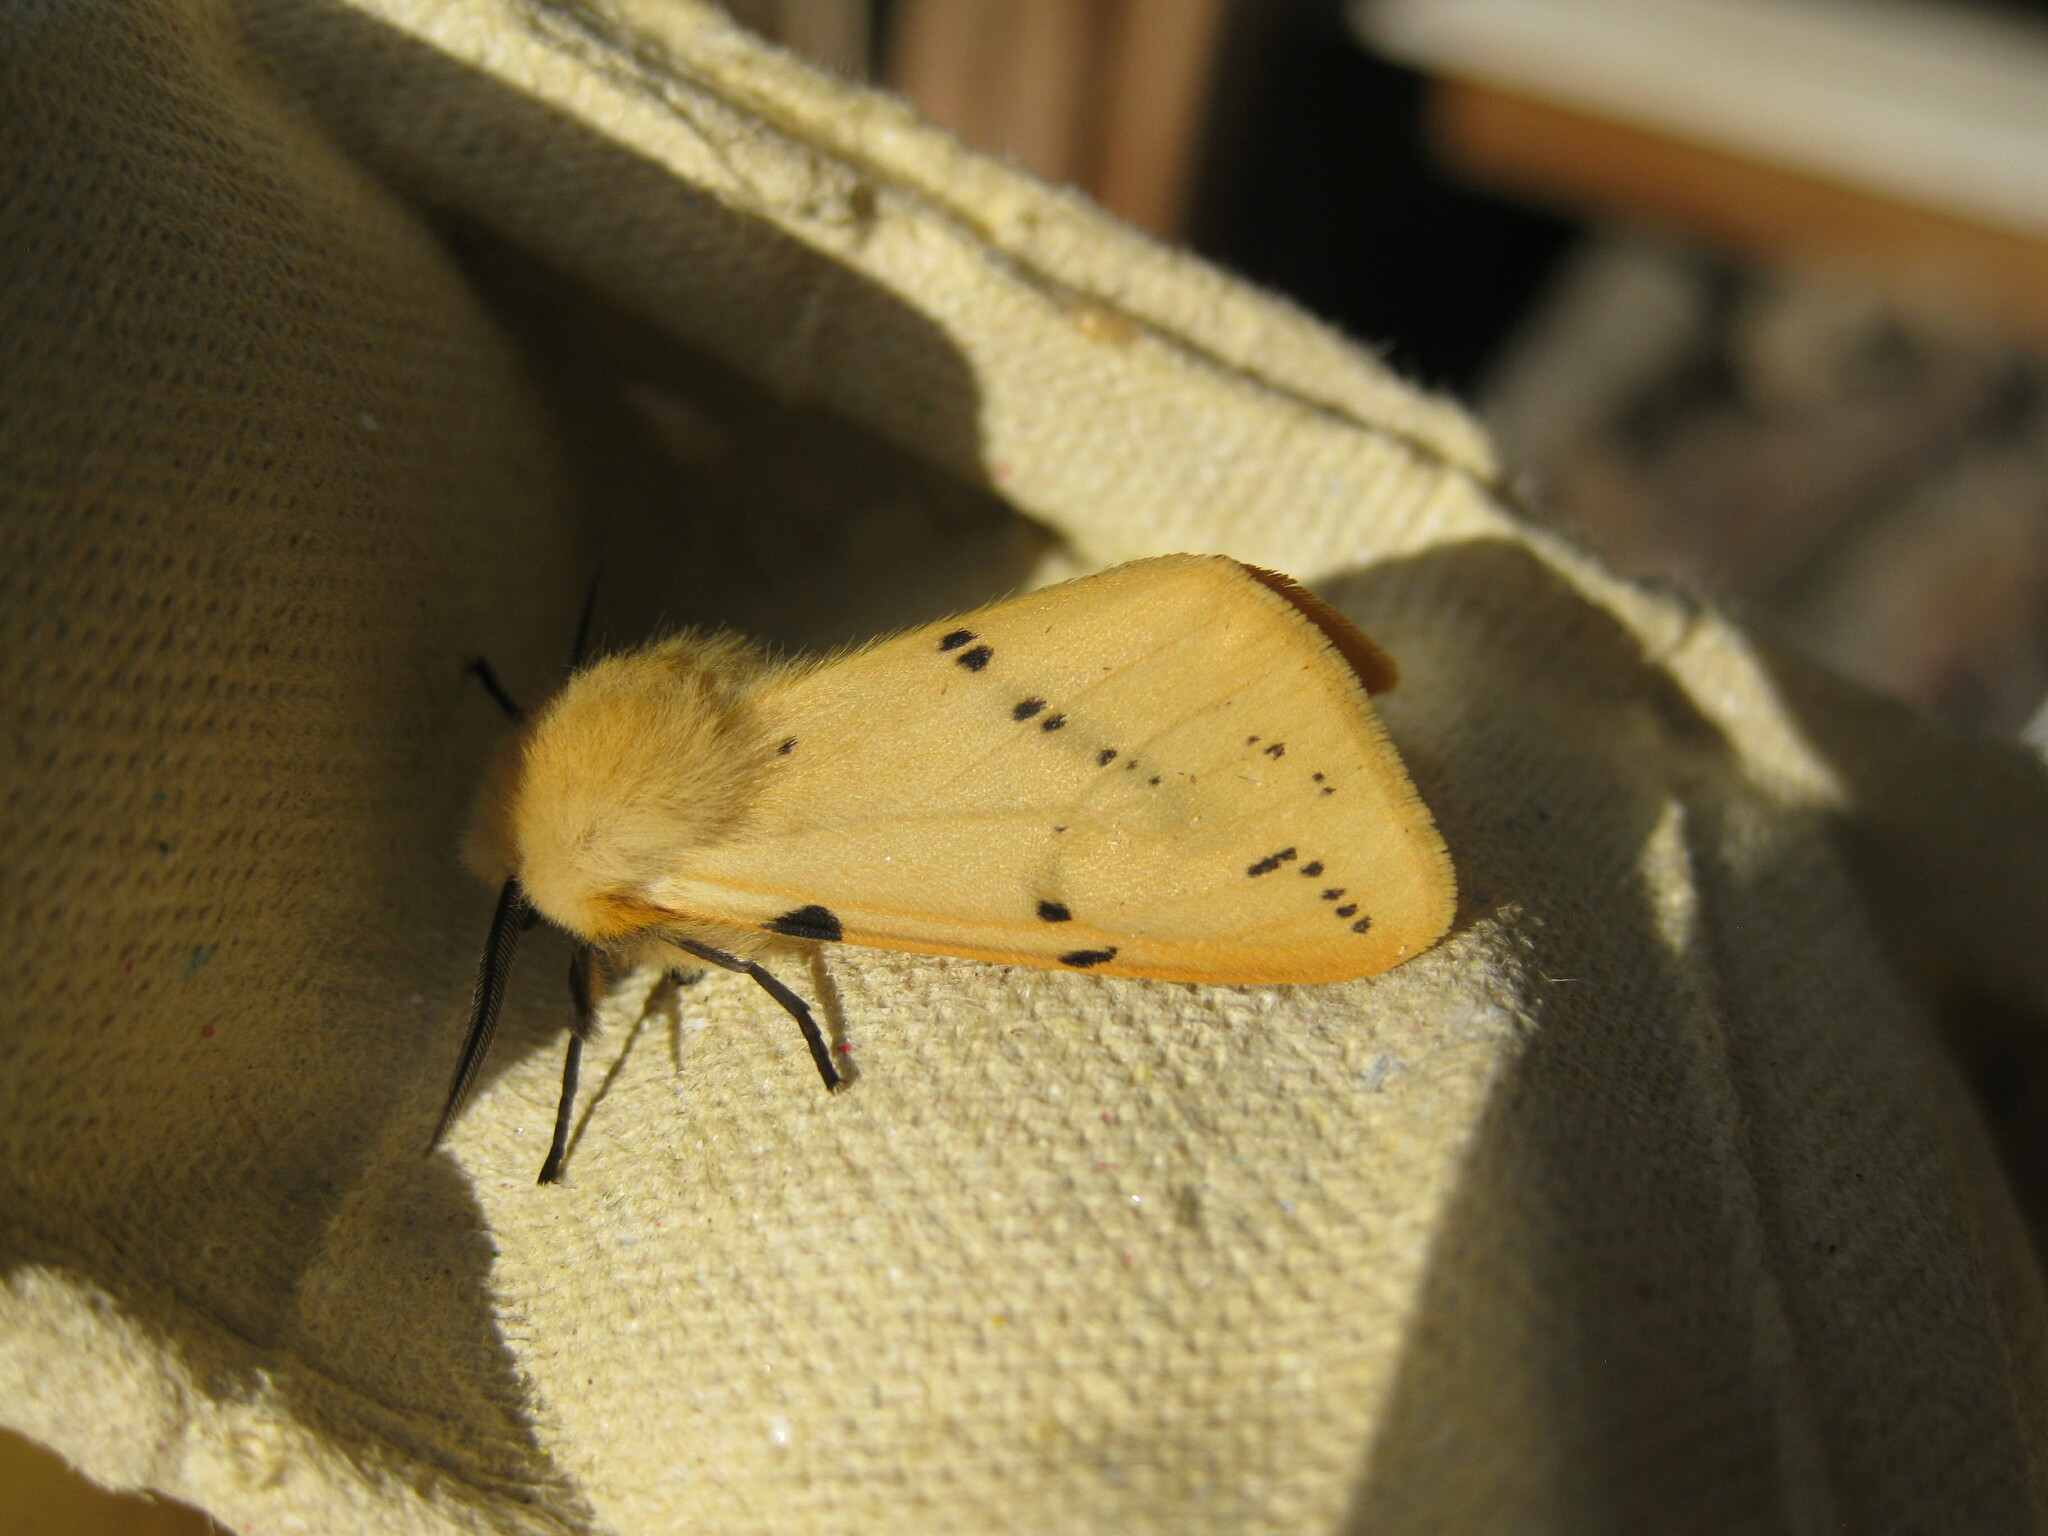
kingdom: Animalia
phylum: Arthropoda
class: Insecta
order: Lepidoptera
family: Erebidae
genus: Spilarctia
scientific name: Spilarctia lutea
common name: Buff ermine
